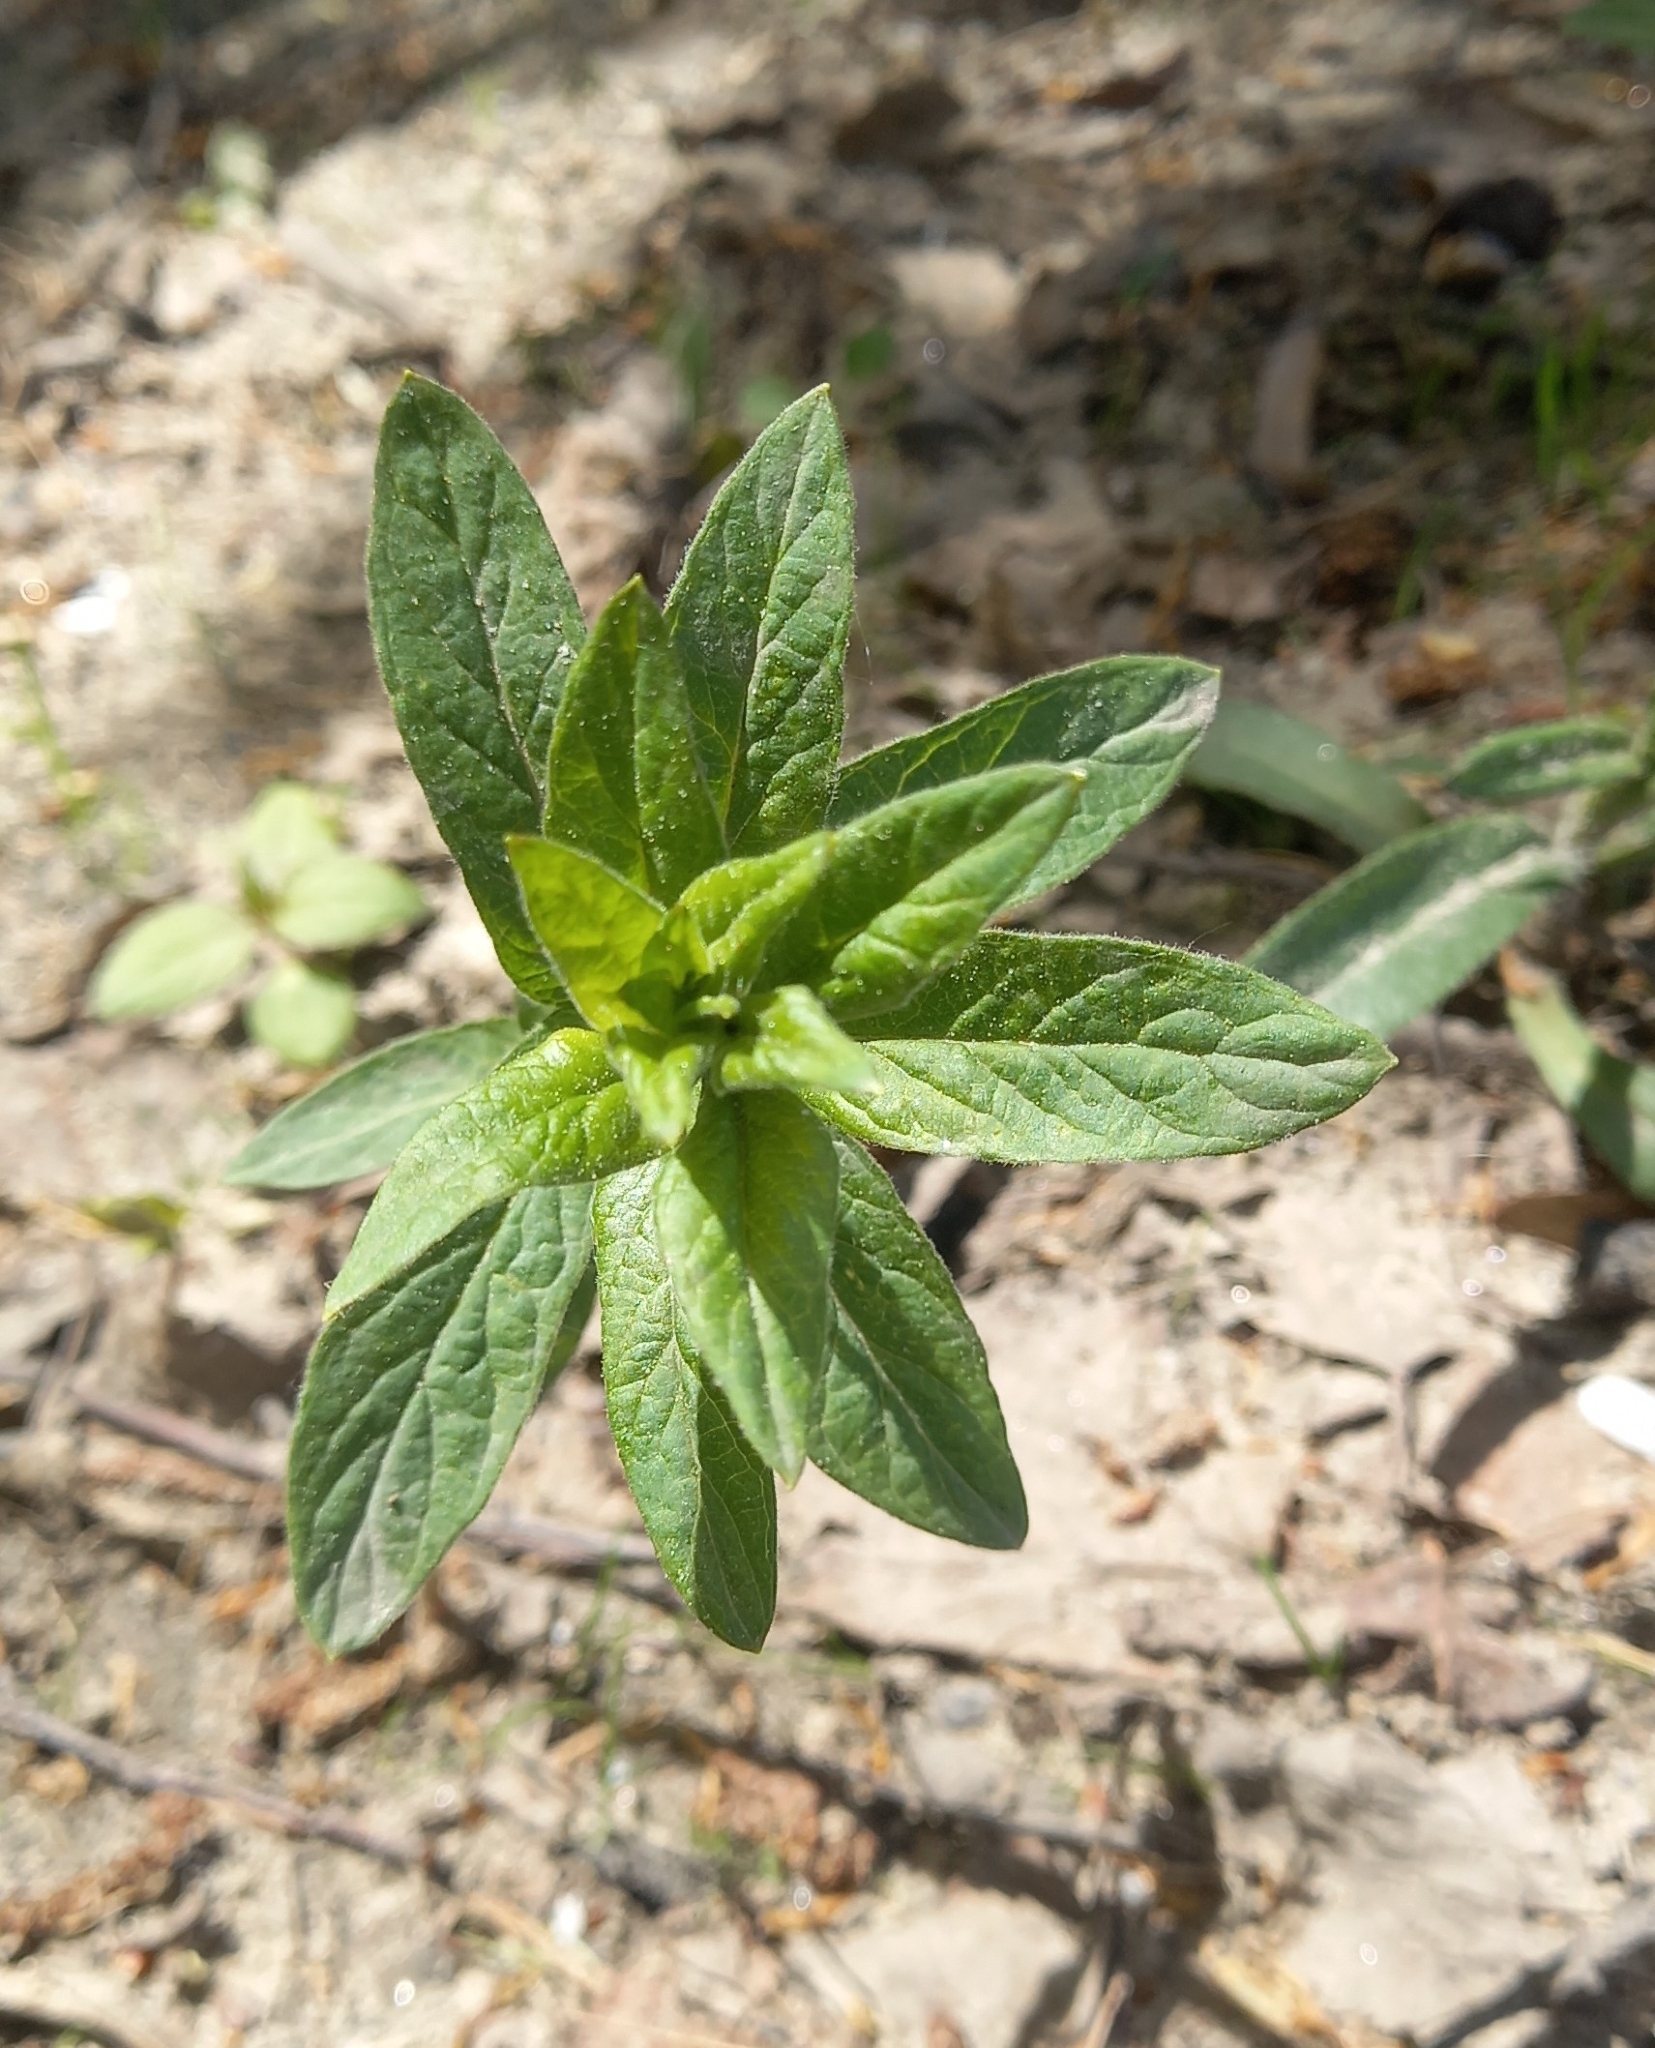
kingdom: Plantae
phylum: Tracheophyta
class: Magnoliopsida
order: Ericales
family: Primulaceae
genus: Lysimachia
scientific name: Lysimachia vulgaris
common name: Yellow loosestrife
